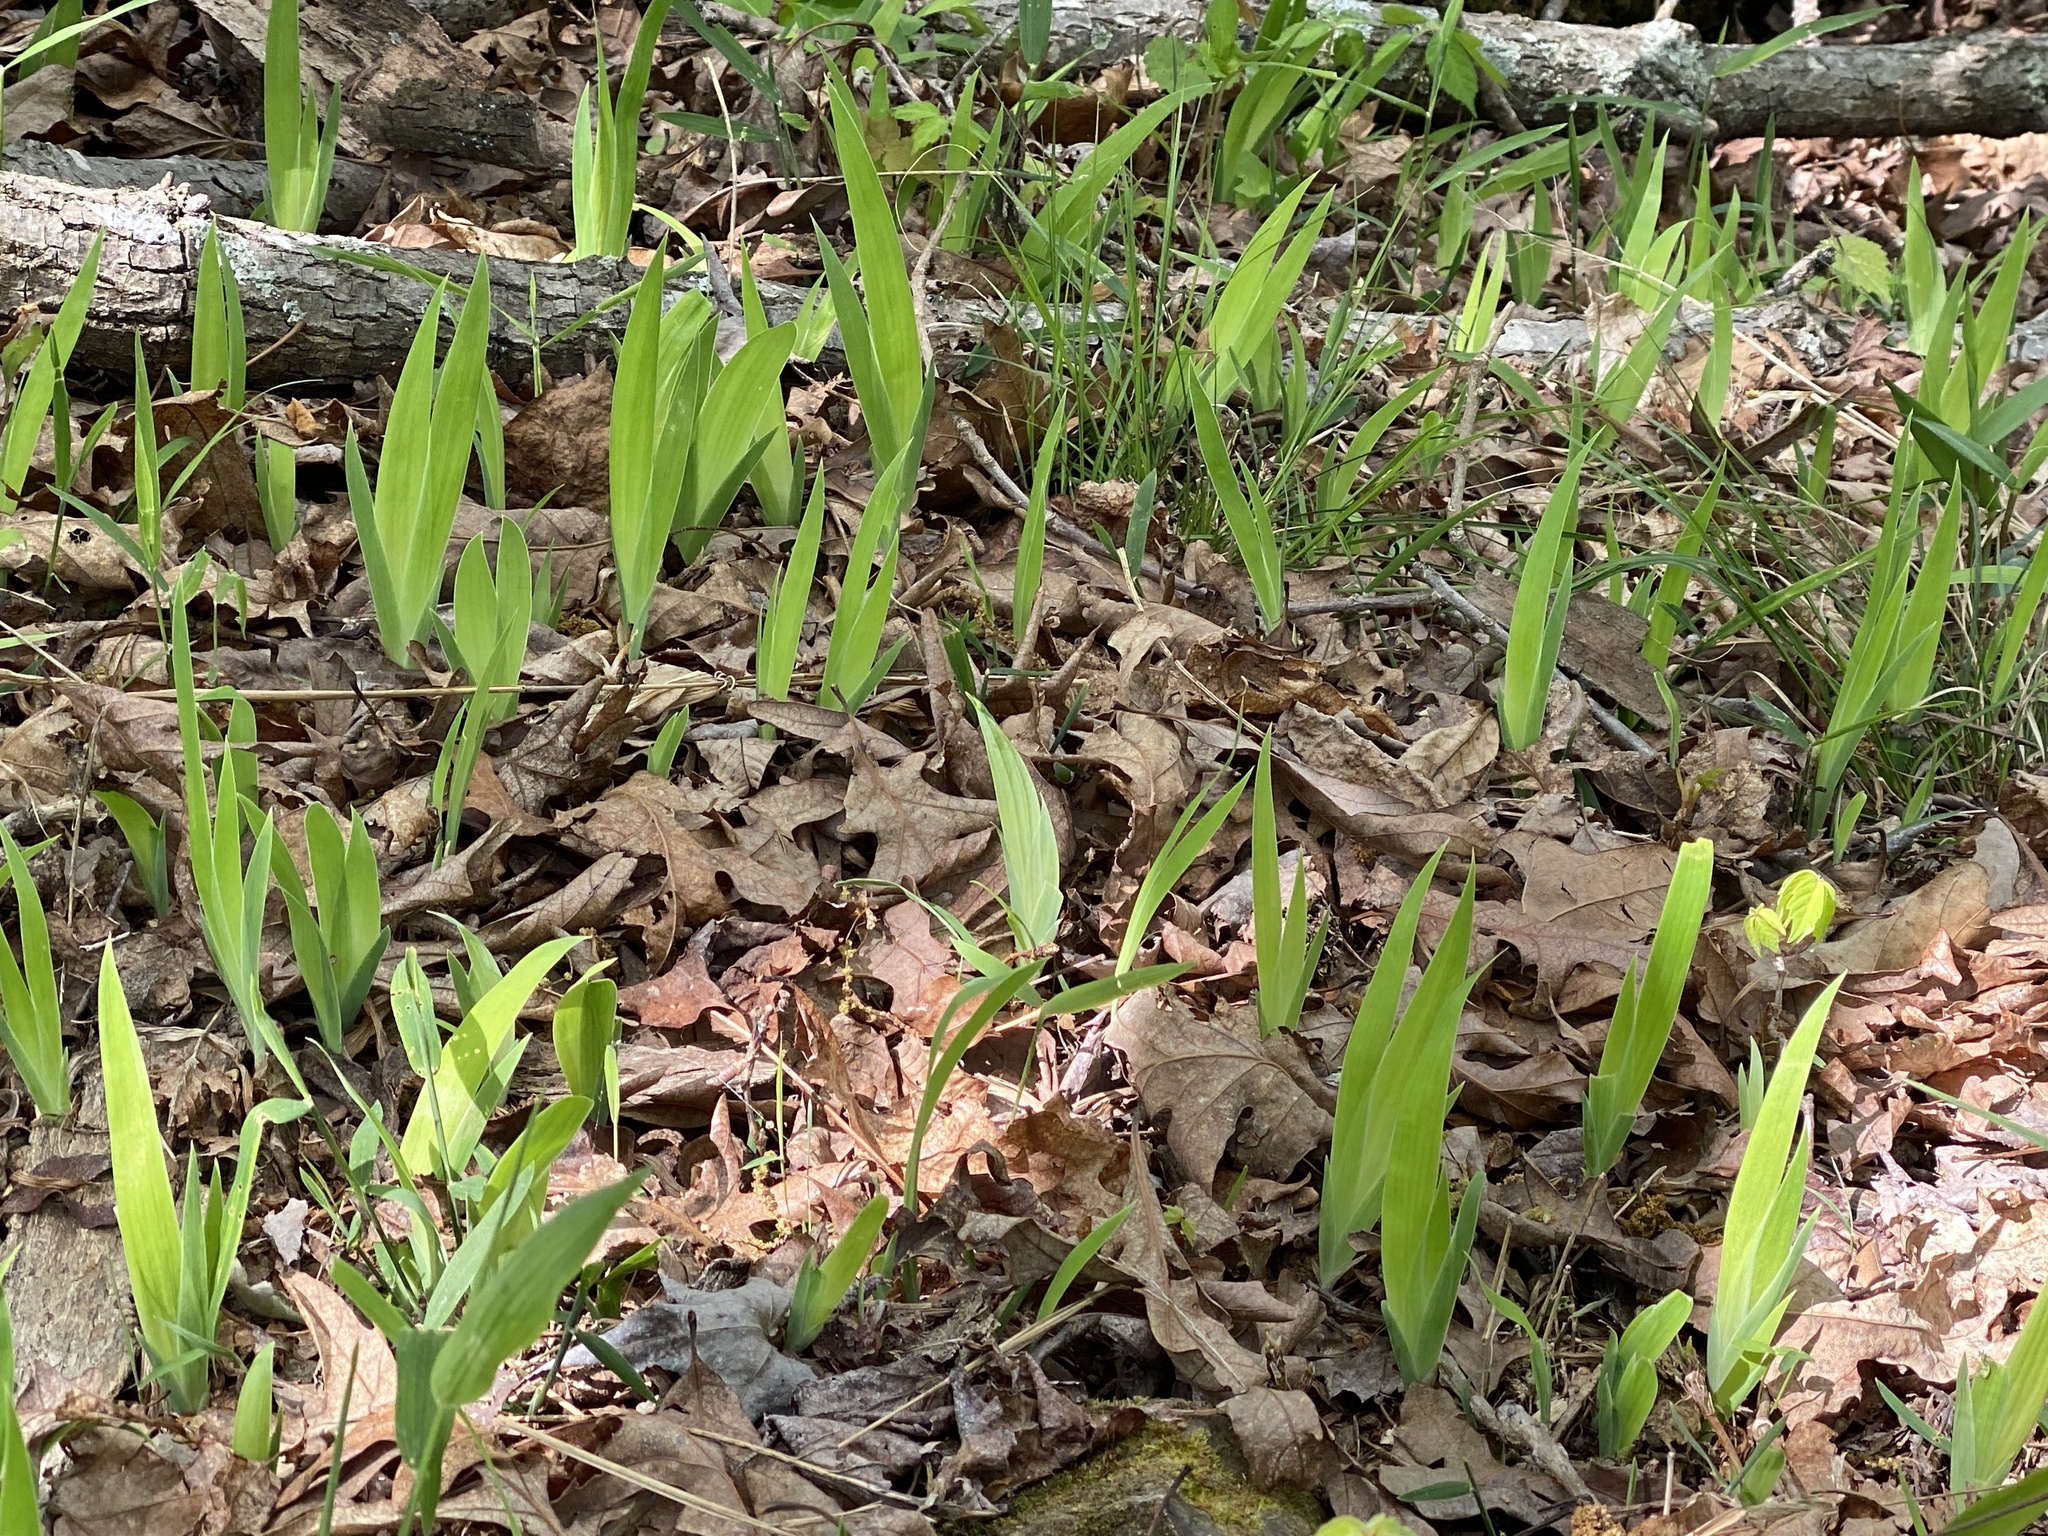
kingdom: Plantae
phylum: Tracheophyta
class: Liliopsida
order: Asparagales
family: Iridaceae
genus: Iris
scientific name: Iris cristata
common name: Crested iris
